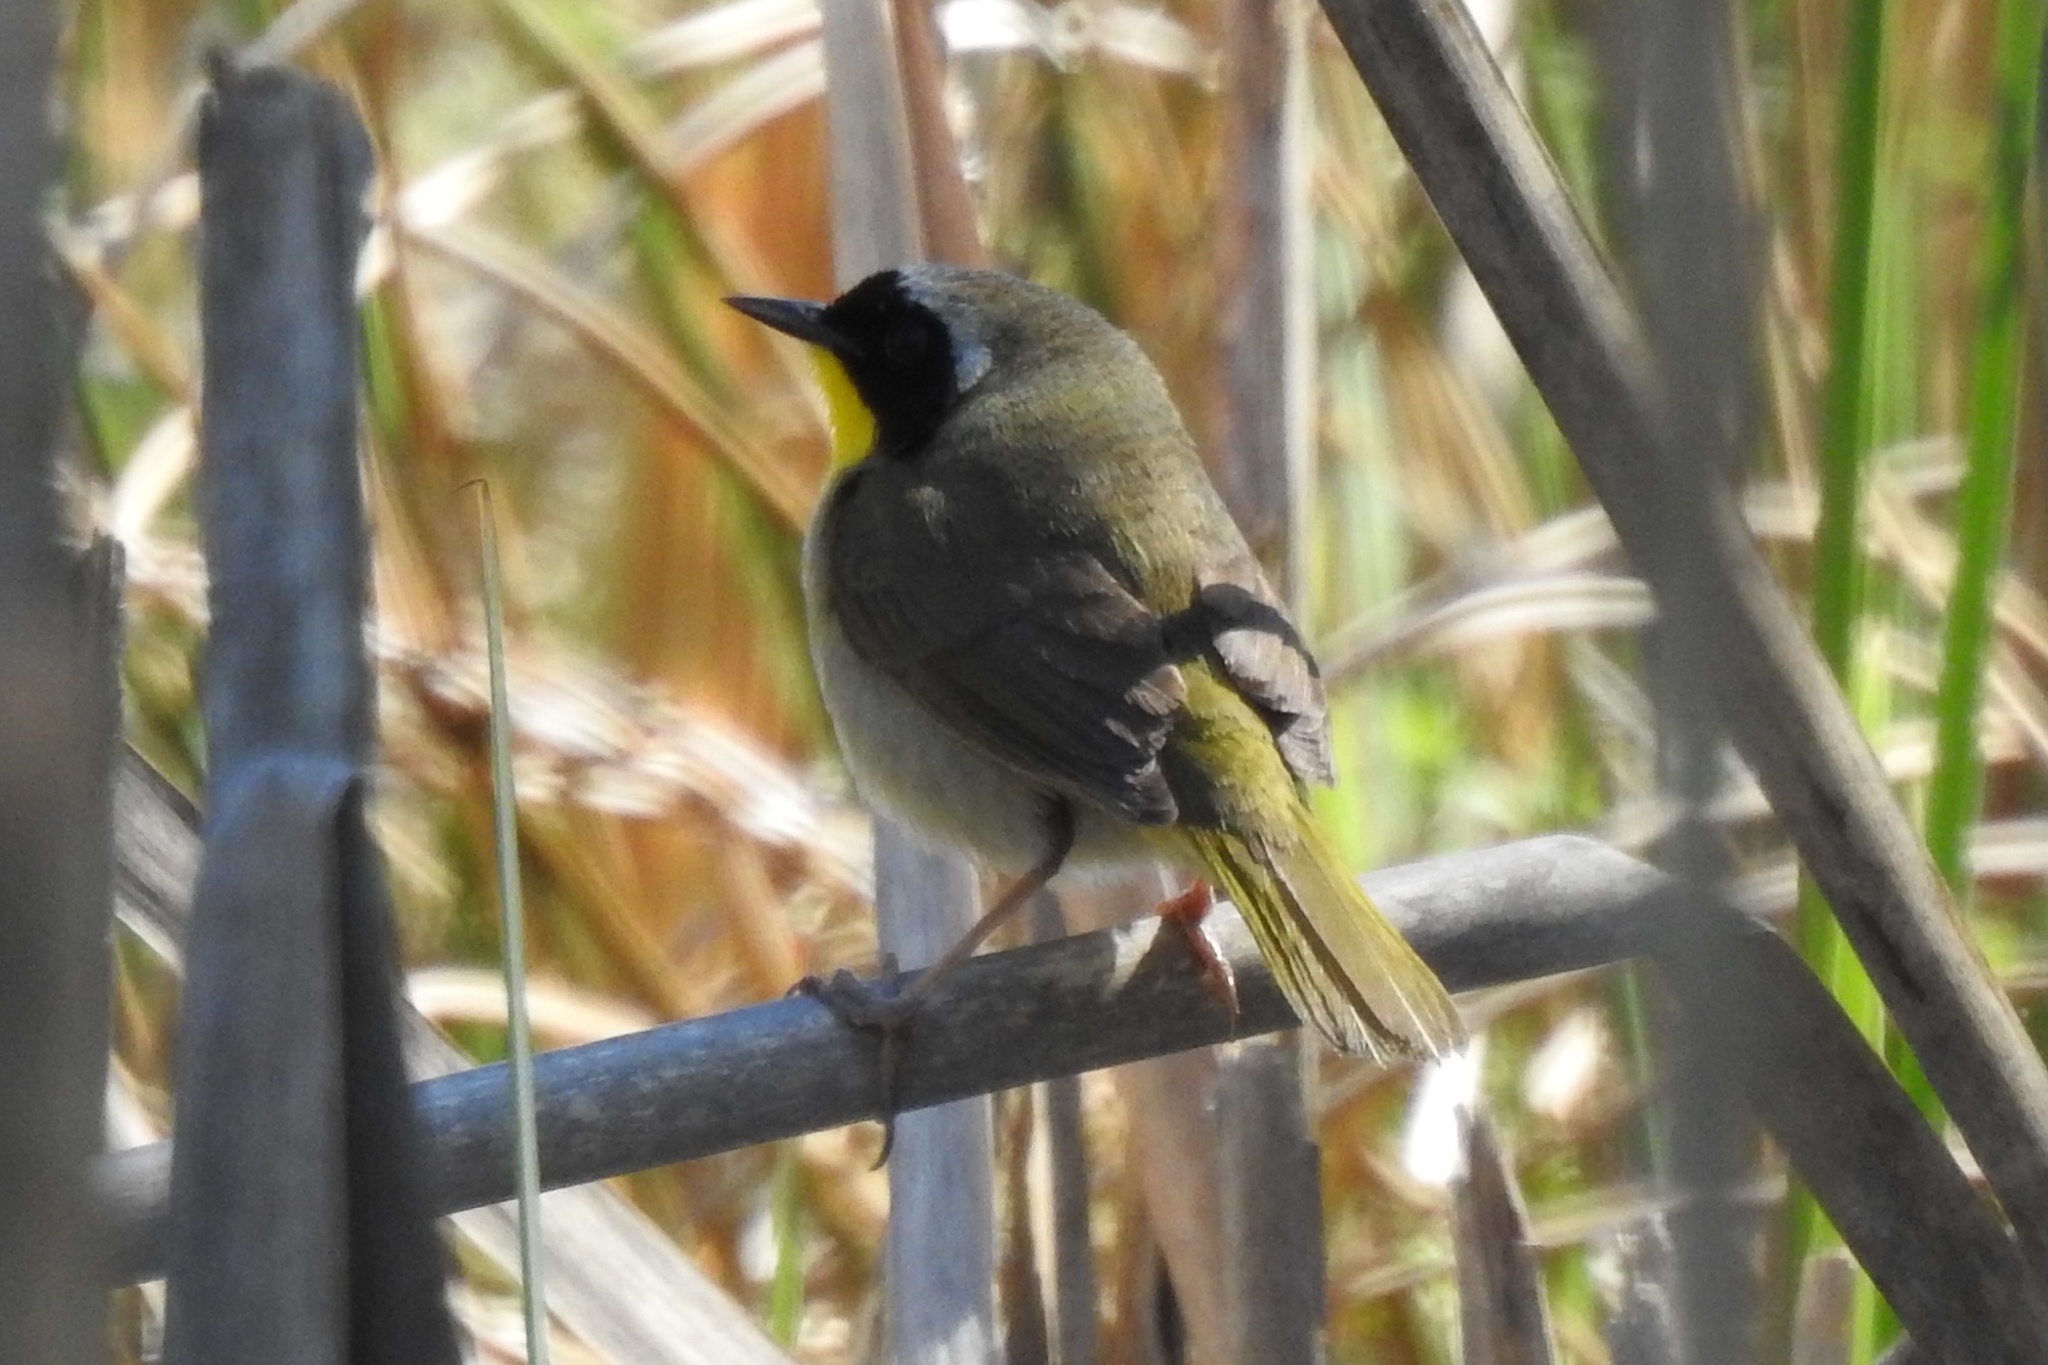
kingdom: Animalia
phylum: Chordata
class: Aves
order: Passeriformes
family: Parulidae
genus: Geothlypis
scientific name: Geothlypis trichas
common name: Common yellowthroat
